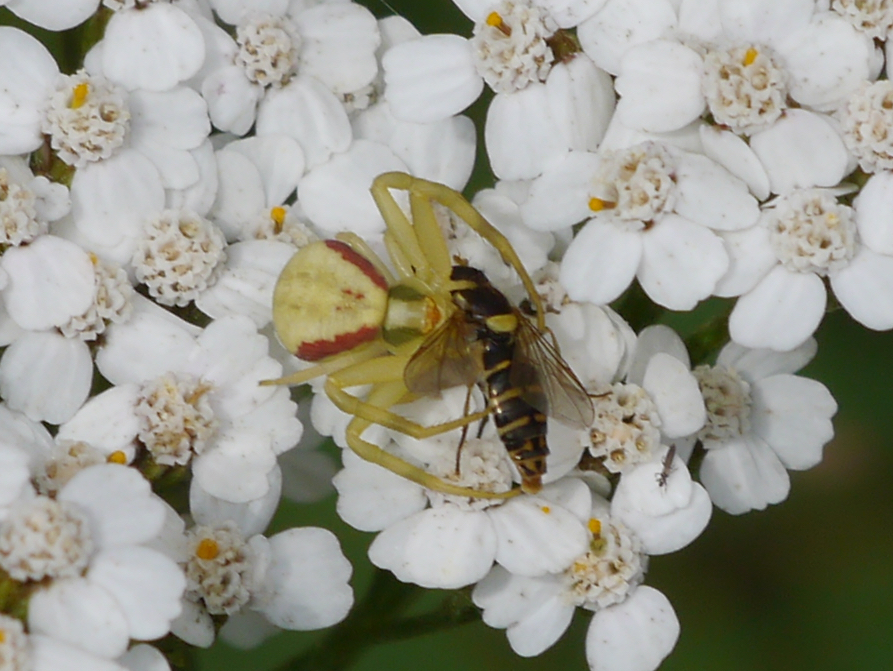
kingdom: Animalia
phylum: Arthropoda
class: Arachnida
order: Araneae
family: Thomisidae
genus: Misumena
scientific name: Misumena vatia
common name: Goldenrod crab spider
